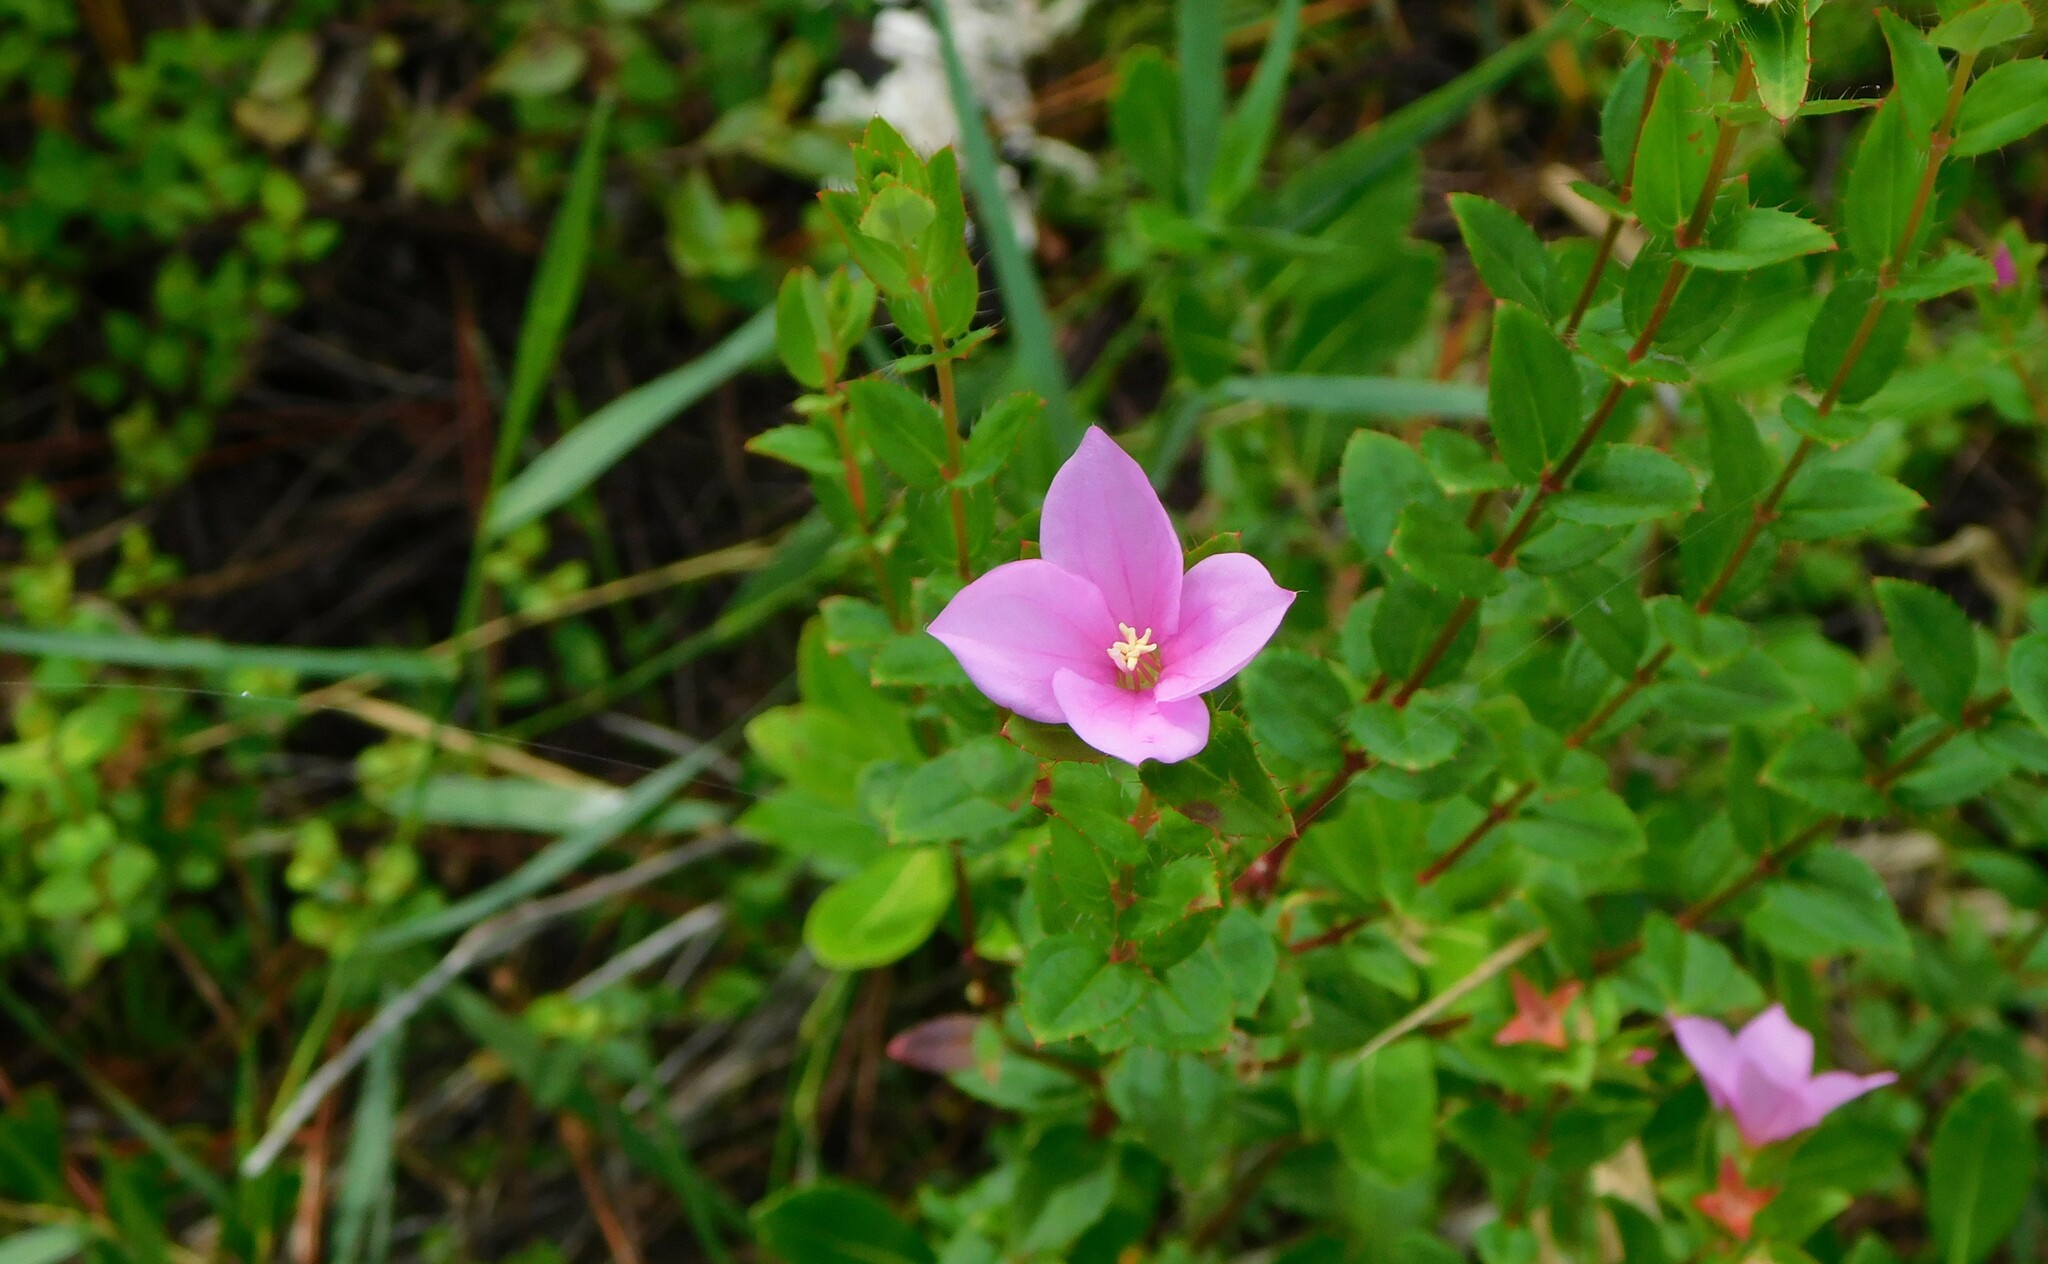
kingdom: Plantae
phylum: Tracheophyta
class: Magnoliopsida
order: Myrtales
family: Melastomataceae
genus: Rhexia
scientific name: Rhexia petiolata
